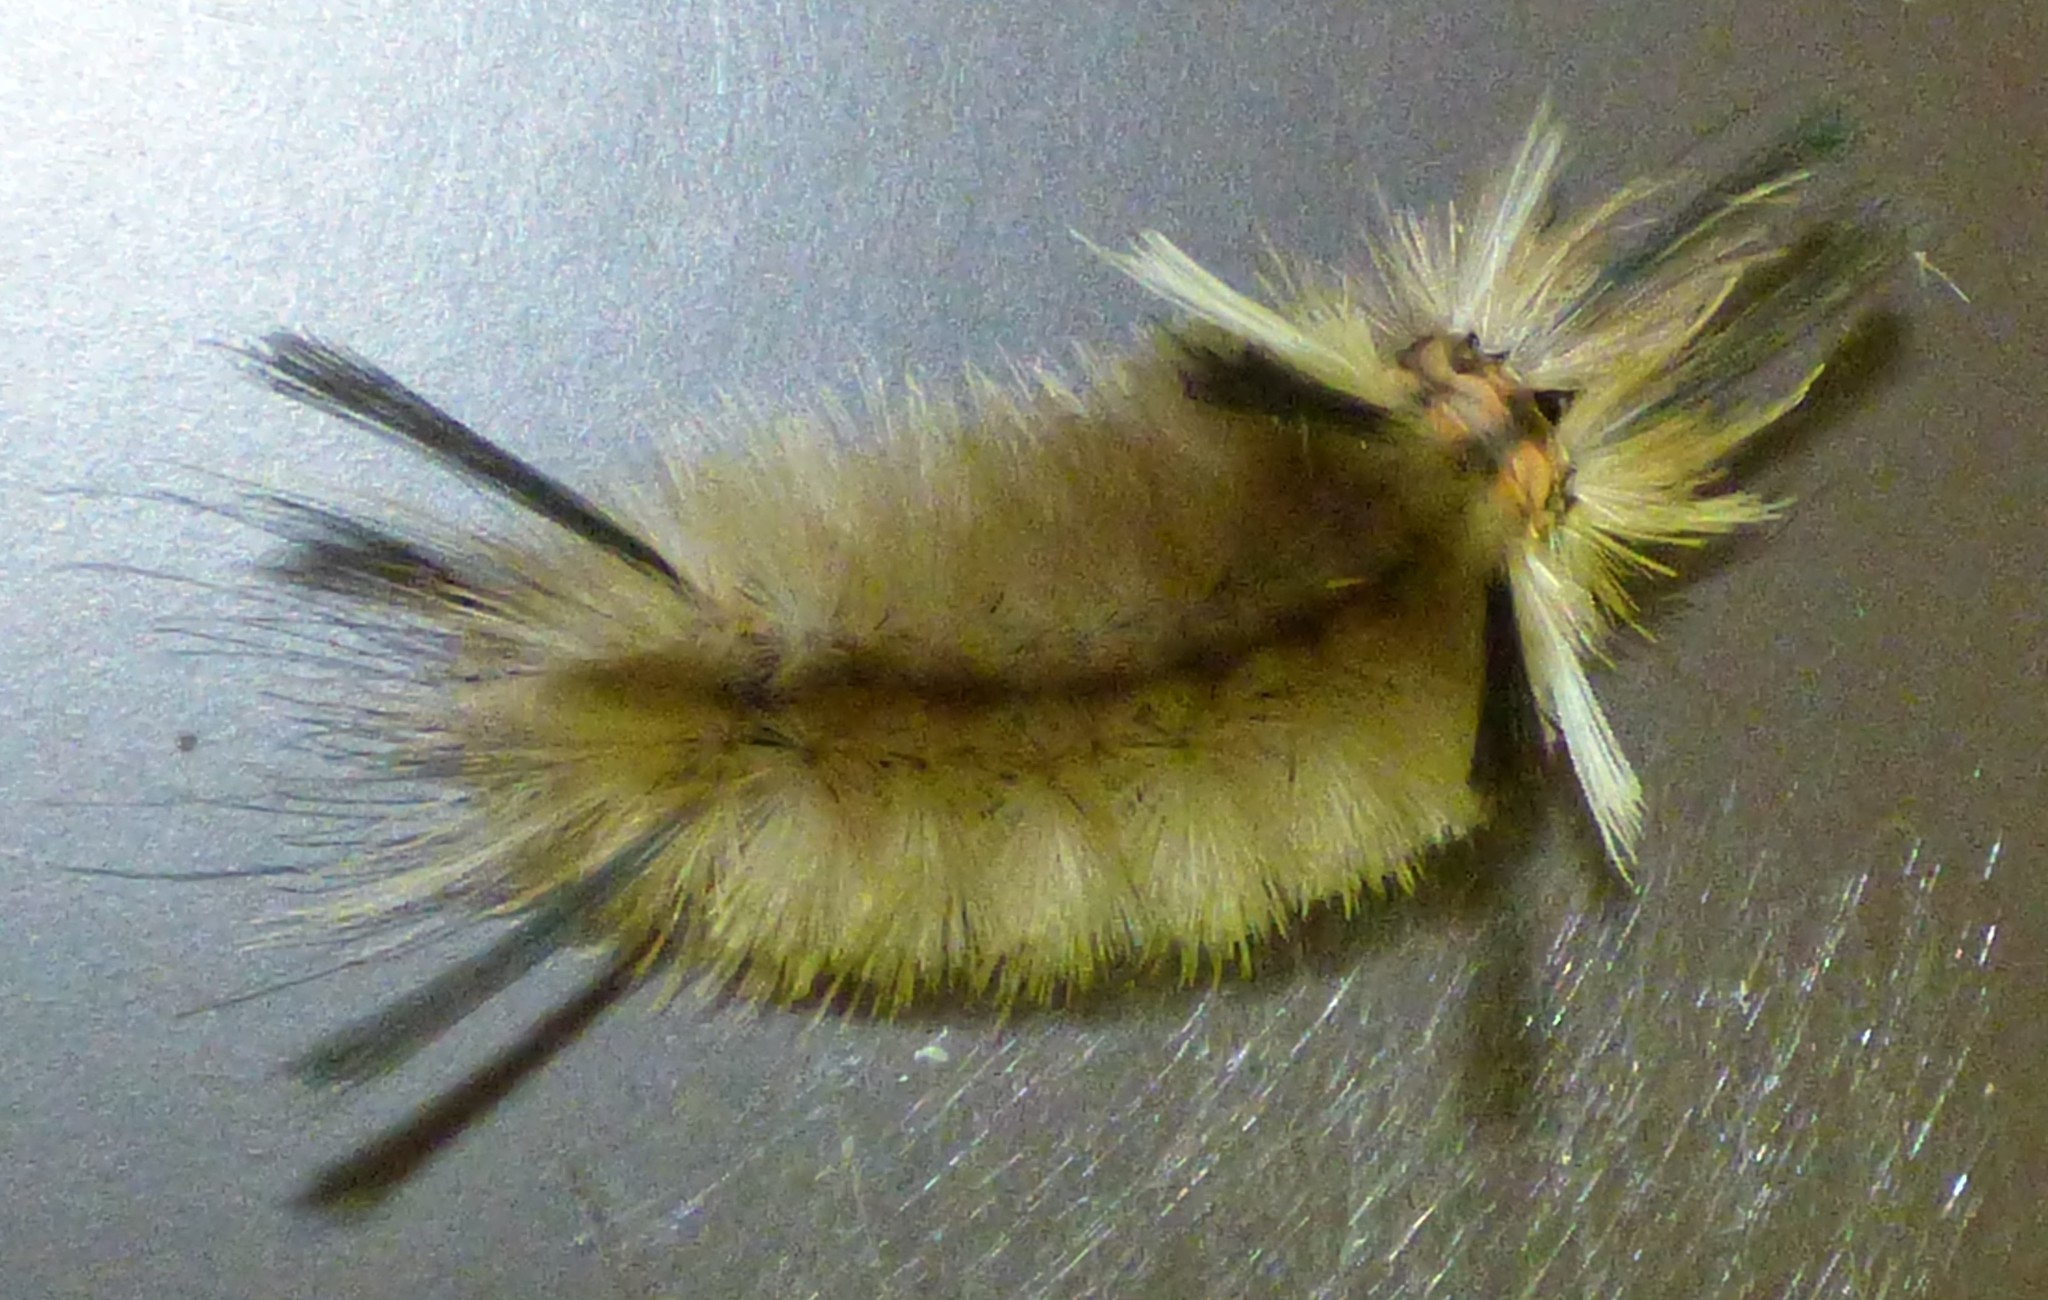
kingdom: Animalia
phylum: Arthropoda
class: Insecta
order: Lepidoptera
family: Erebidae
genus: Halysidota
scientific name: Halysidota tessellaris
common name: Banded tussock moth
